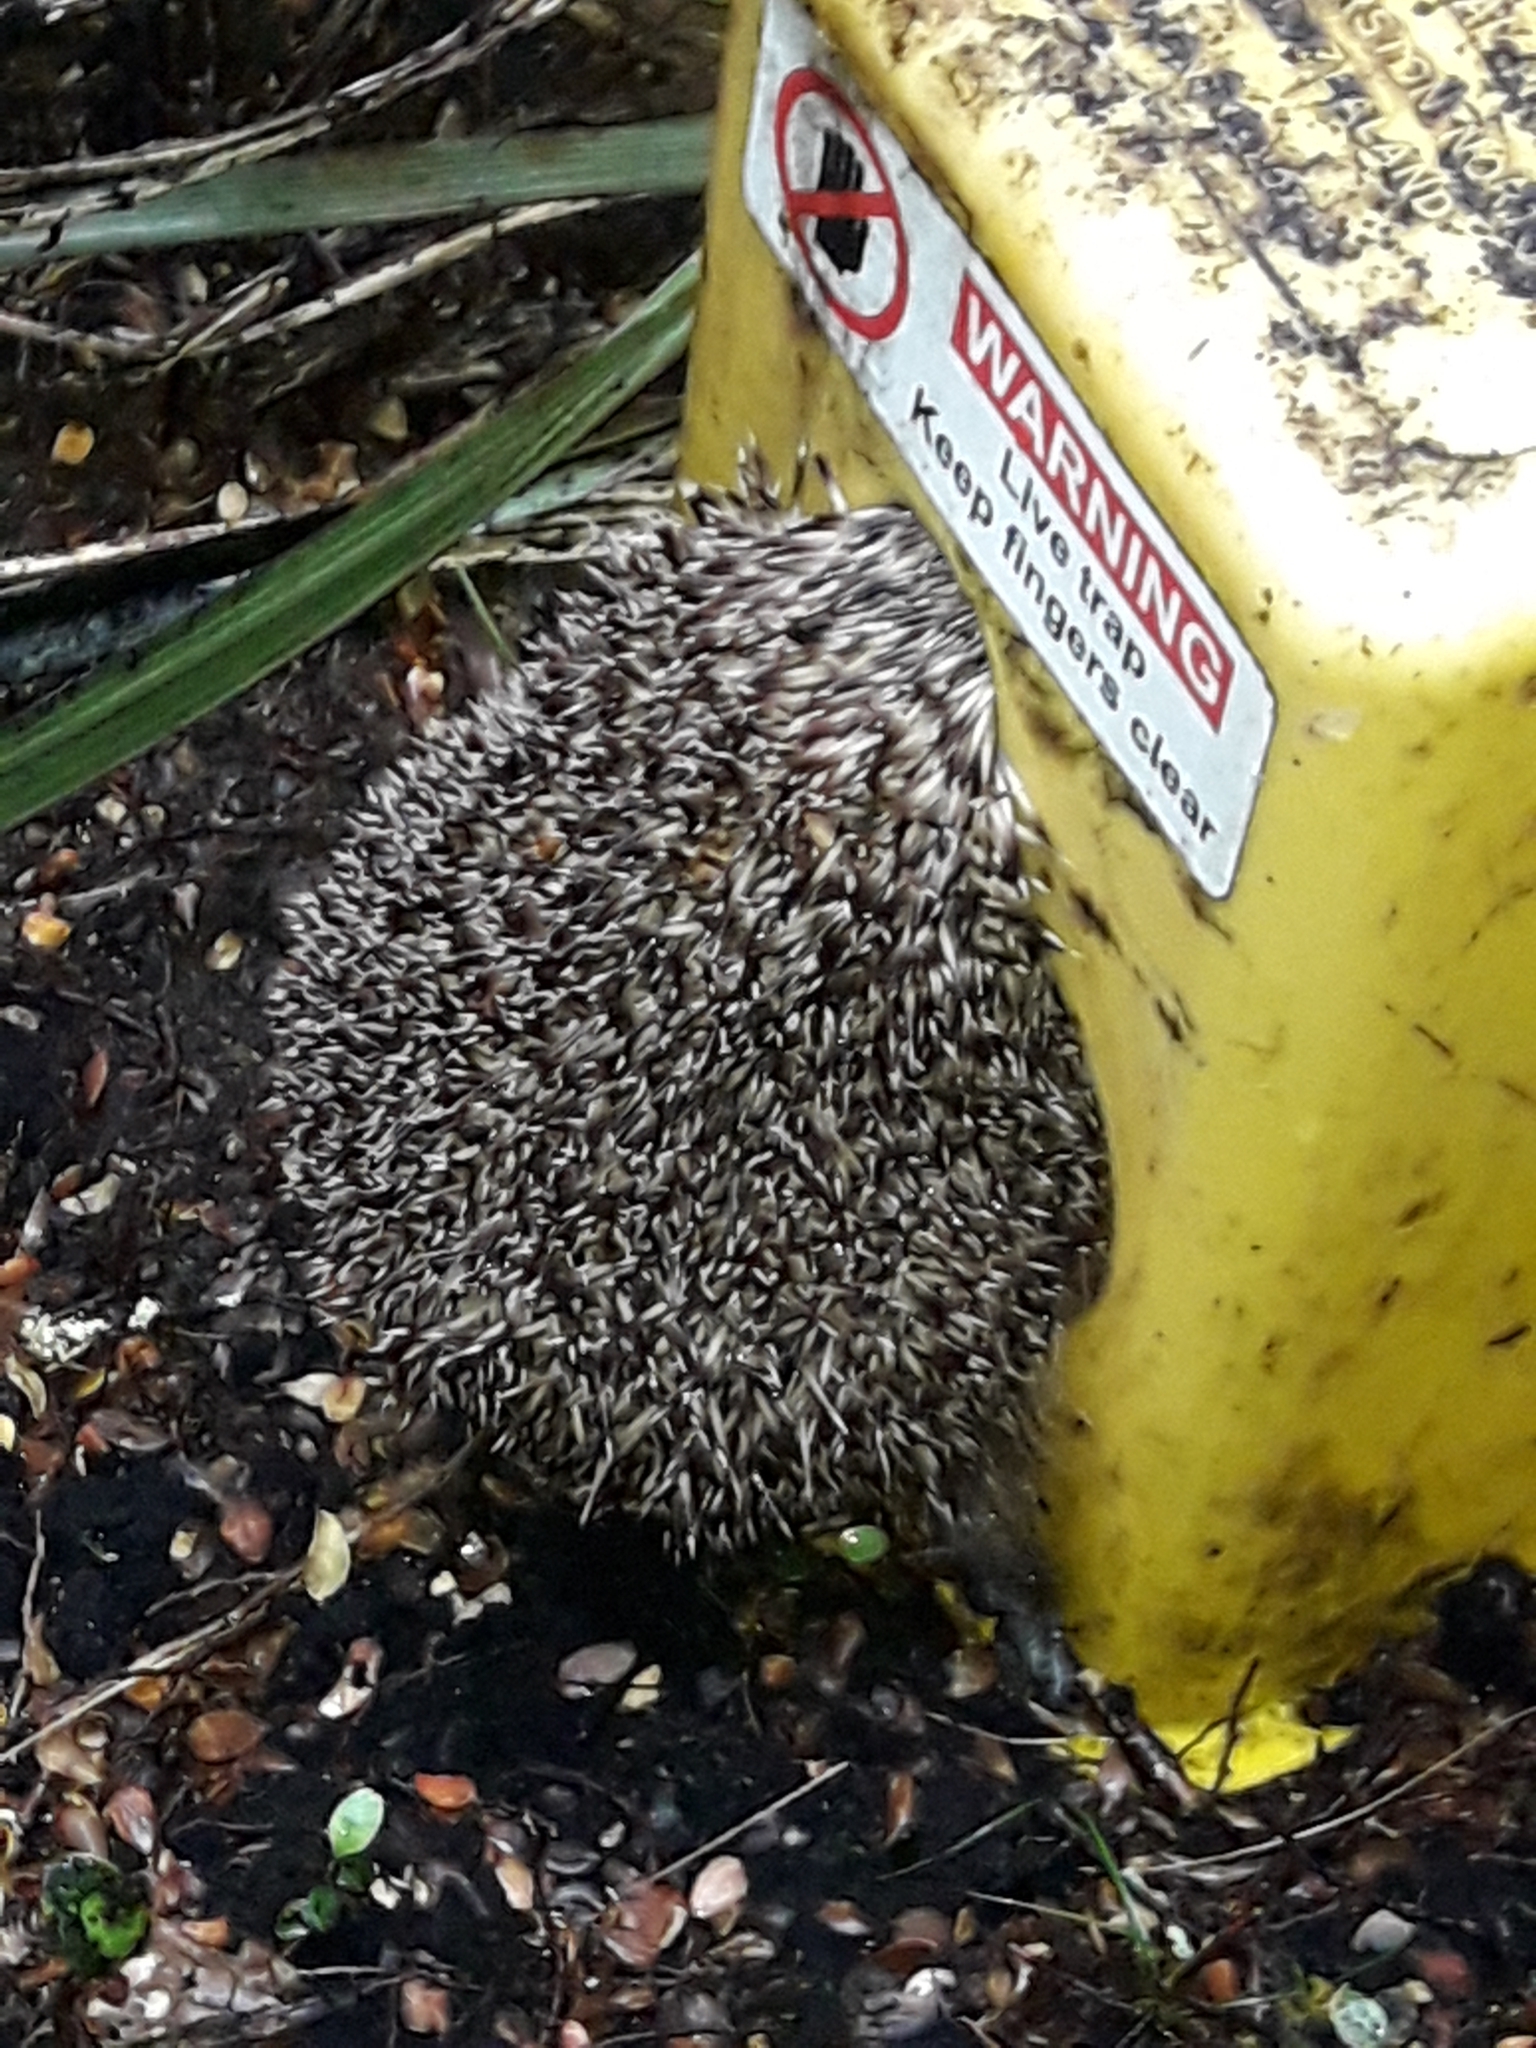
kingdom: Animalia
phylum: Chordata
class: Mammalia
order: Erinaceomorpha
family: Erinaceidae
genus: Erinaceus
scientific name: Erinaceus europaeus
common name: West european hedgehog
